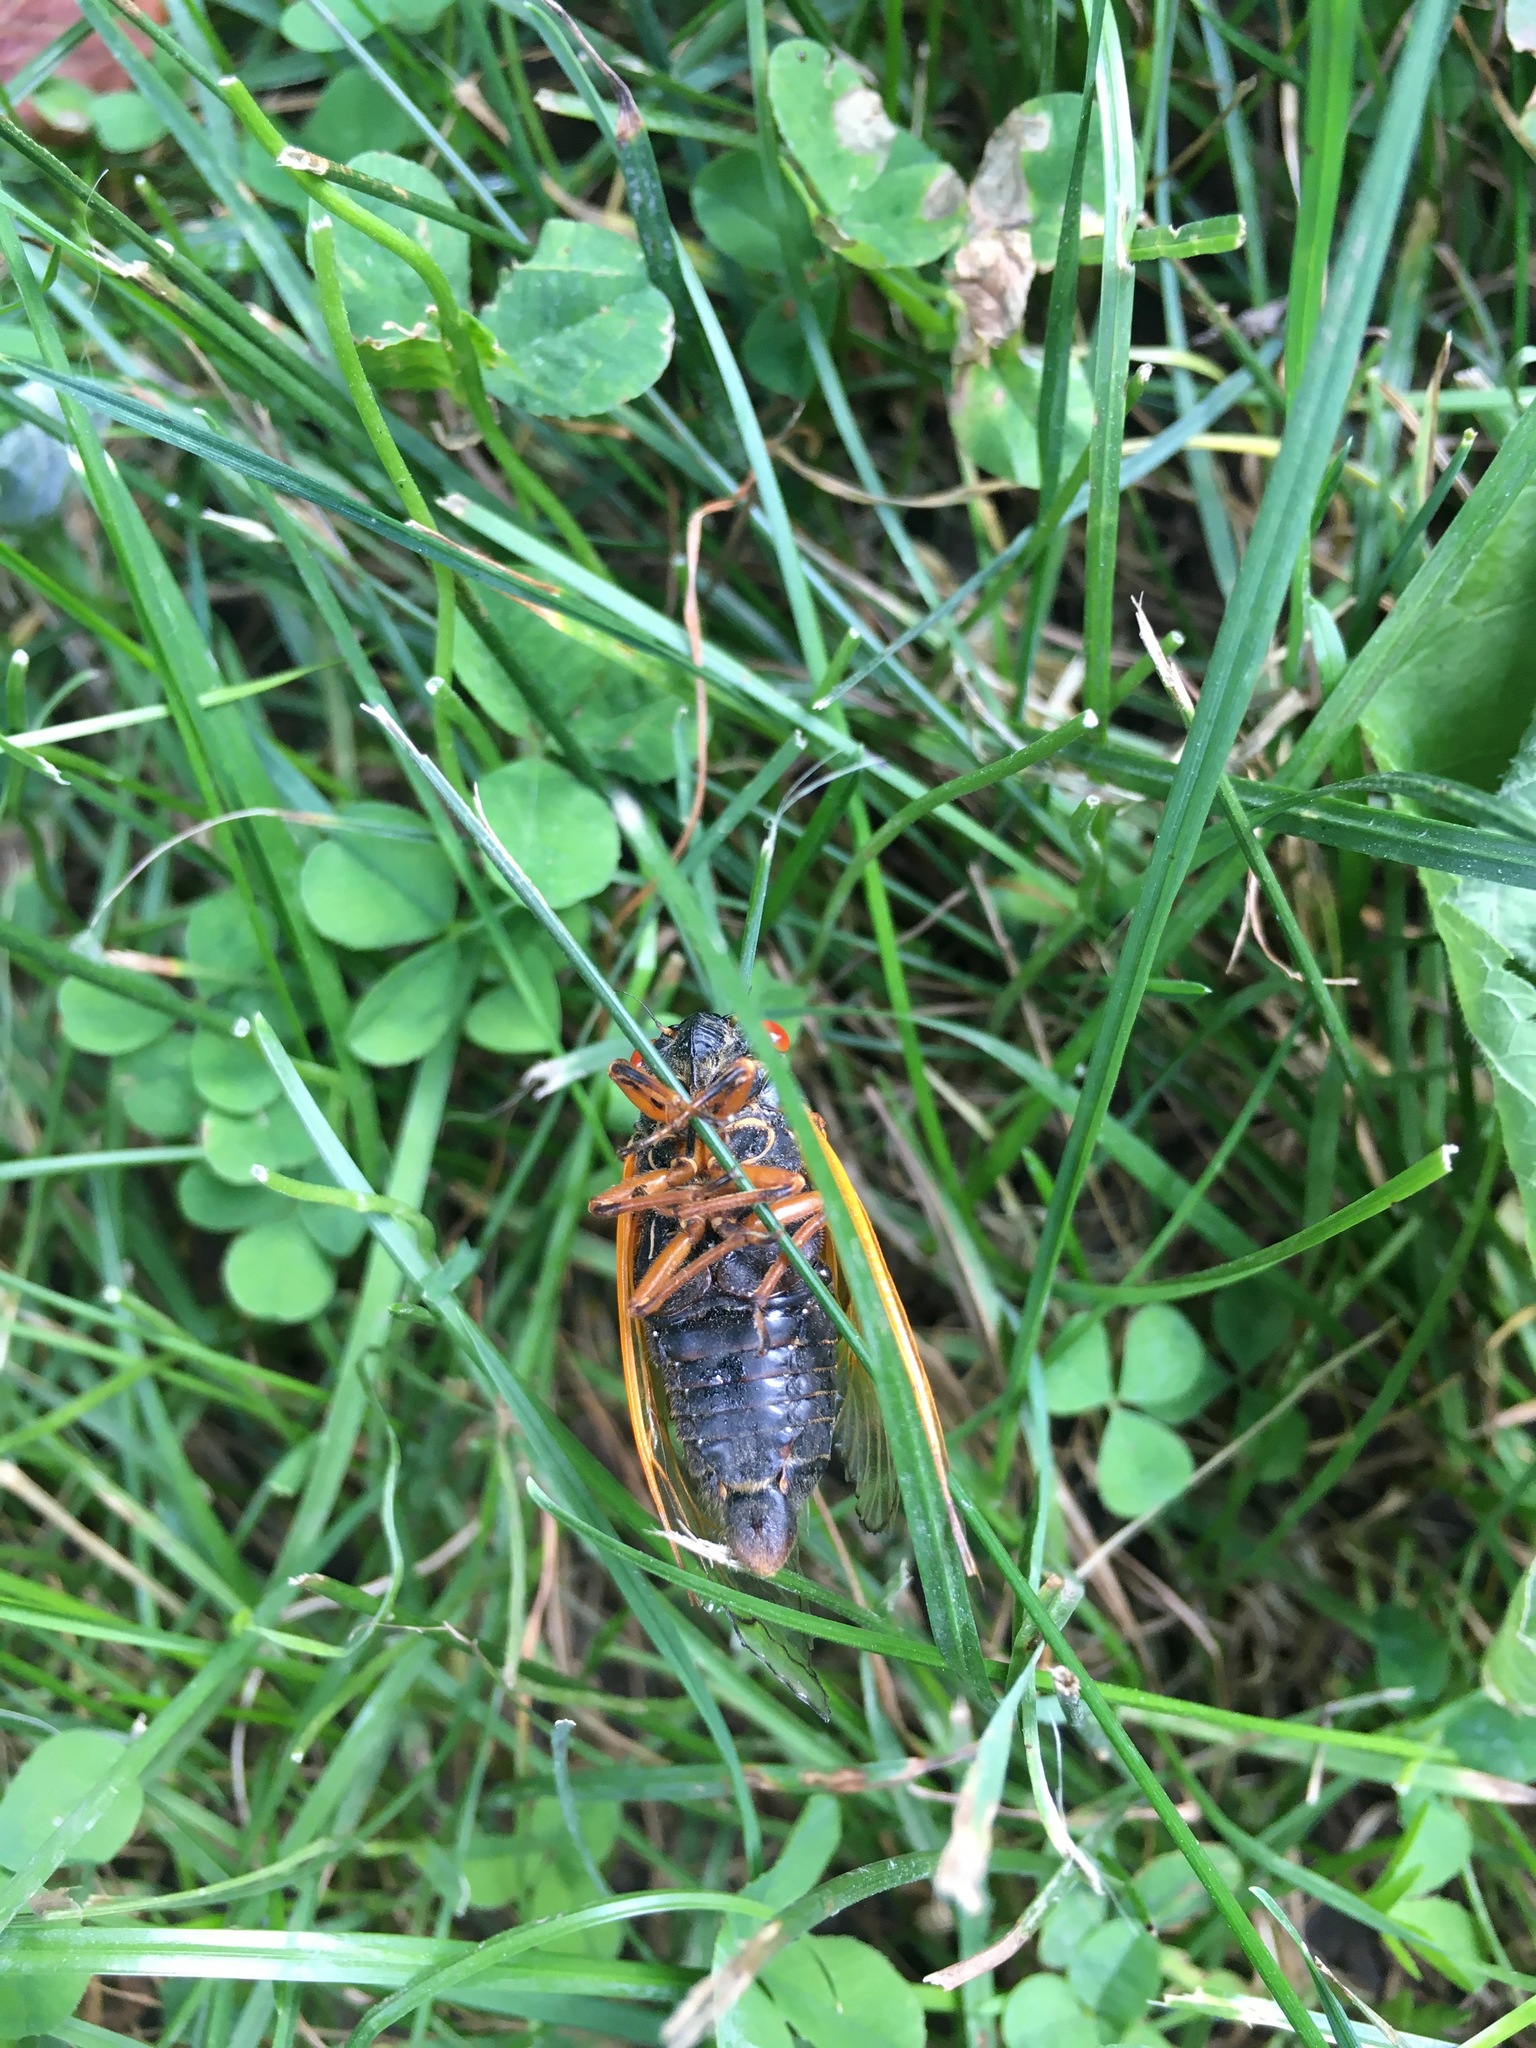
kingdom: Animalia
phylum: Arthropoda
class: Insecta
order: Hemiptera
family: Cicadidae
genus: Magicicada
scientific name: Magicicada cassini
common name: Cassin's 17-year cicada
